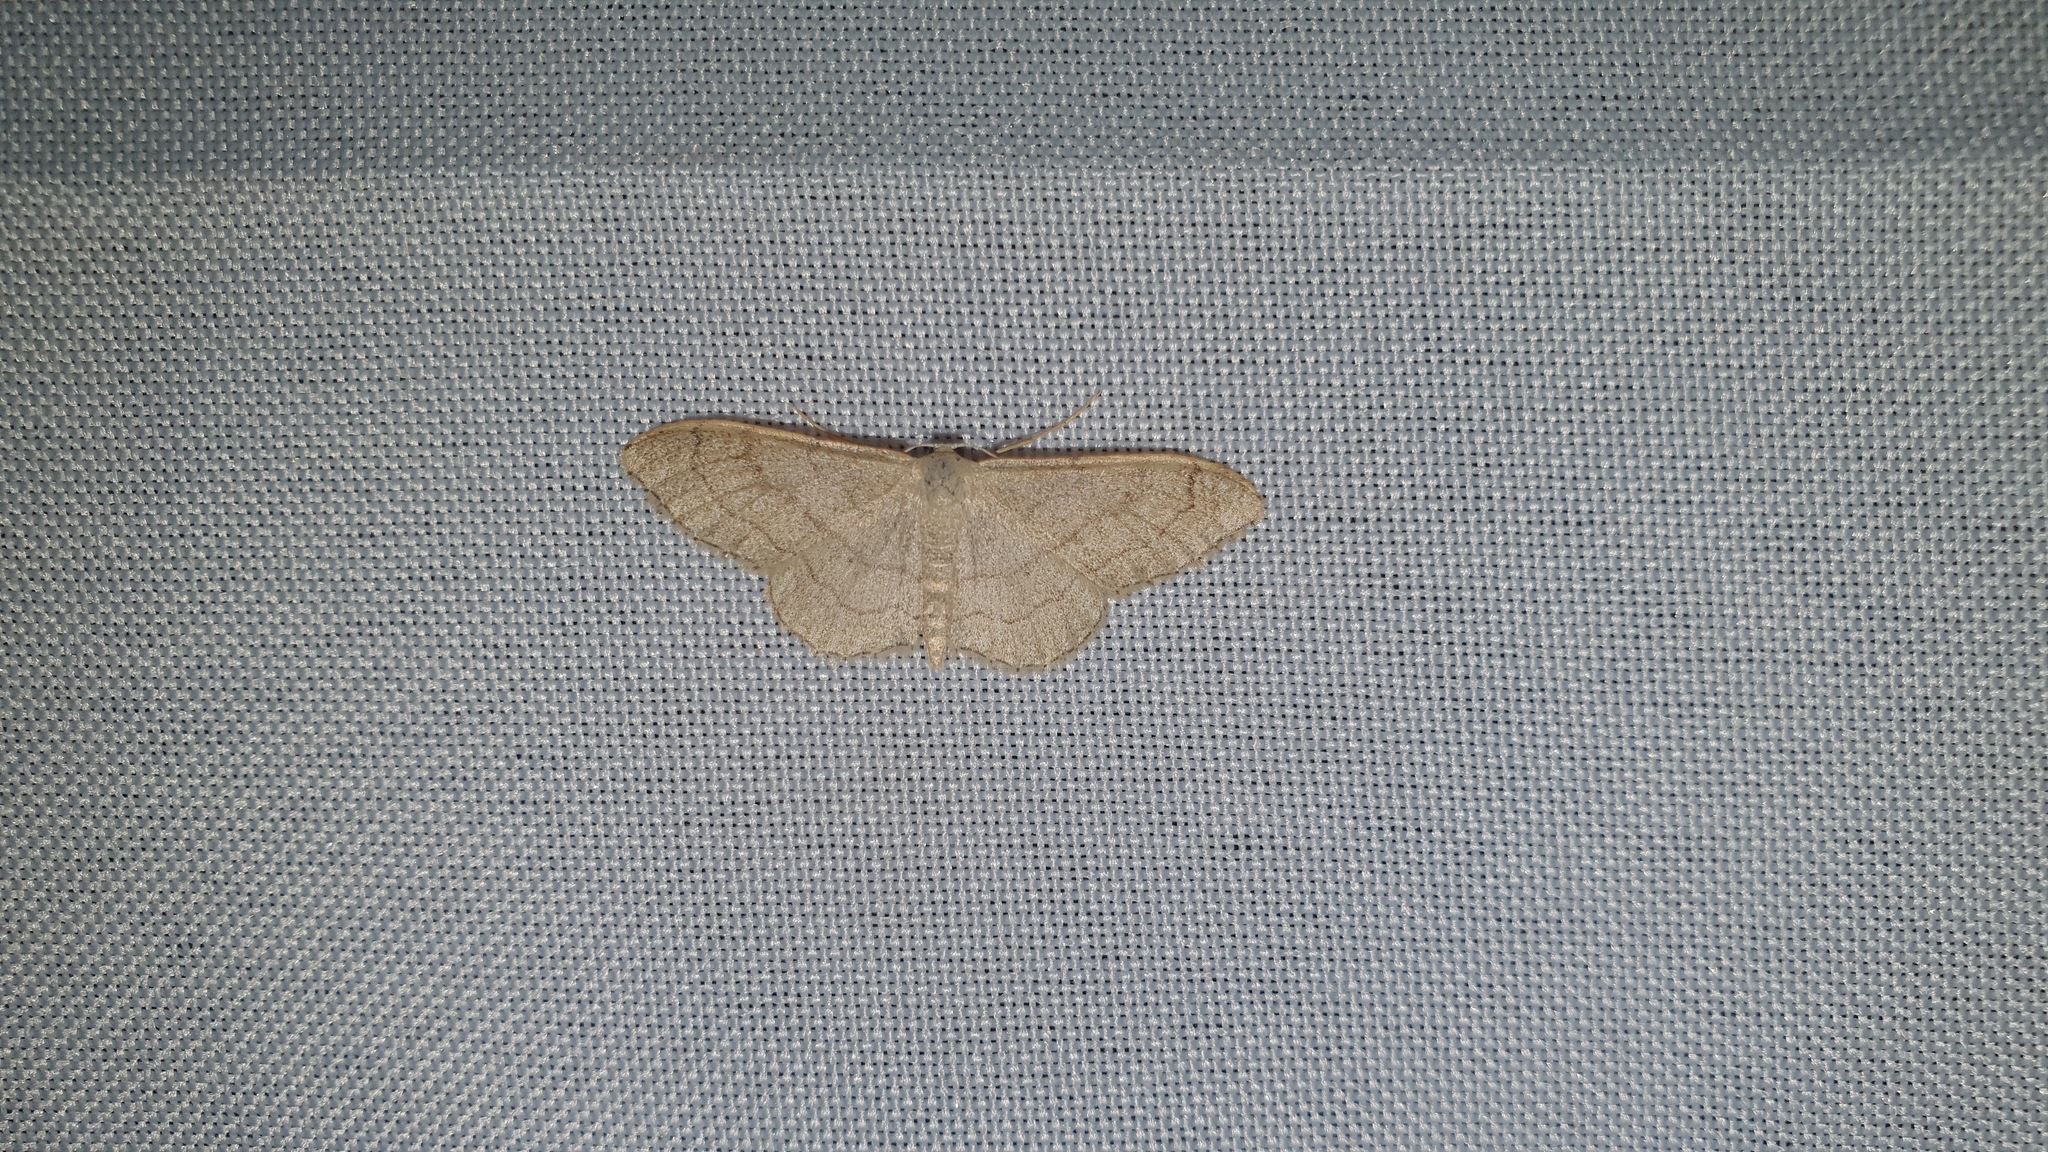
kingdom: Animalia
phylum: Arthropoda
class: Insecta
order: Lepidoptera
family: Geometridae
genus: Idaea
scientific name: Idaea aversata
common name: Riband wave
